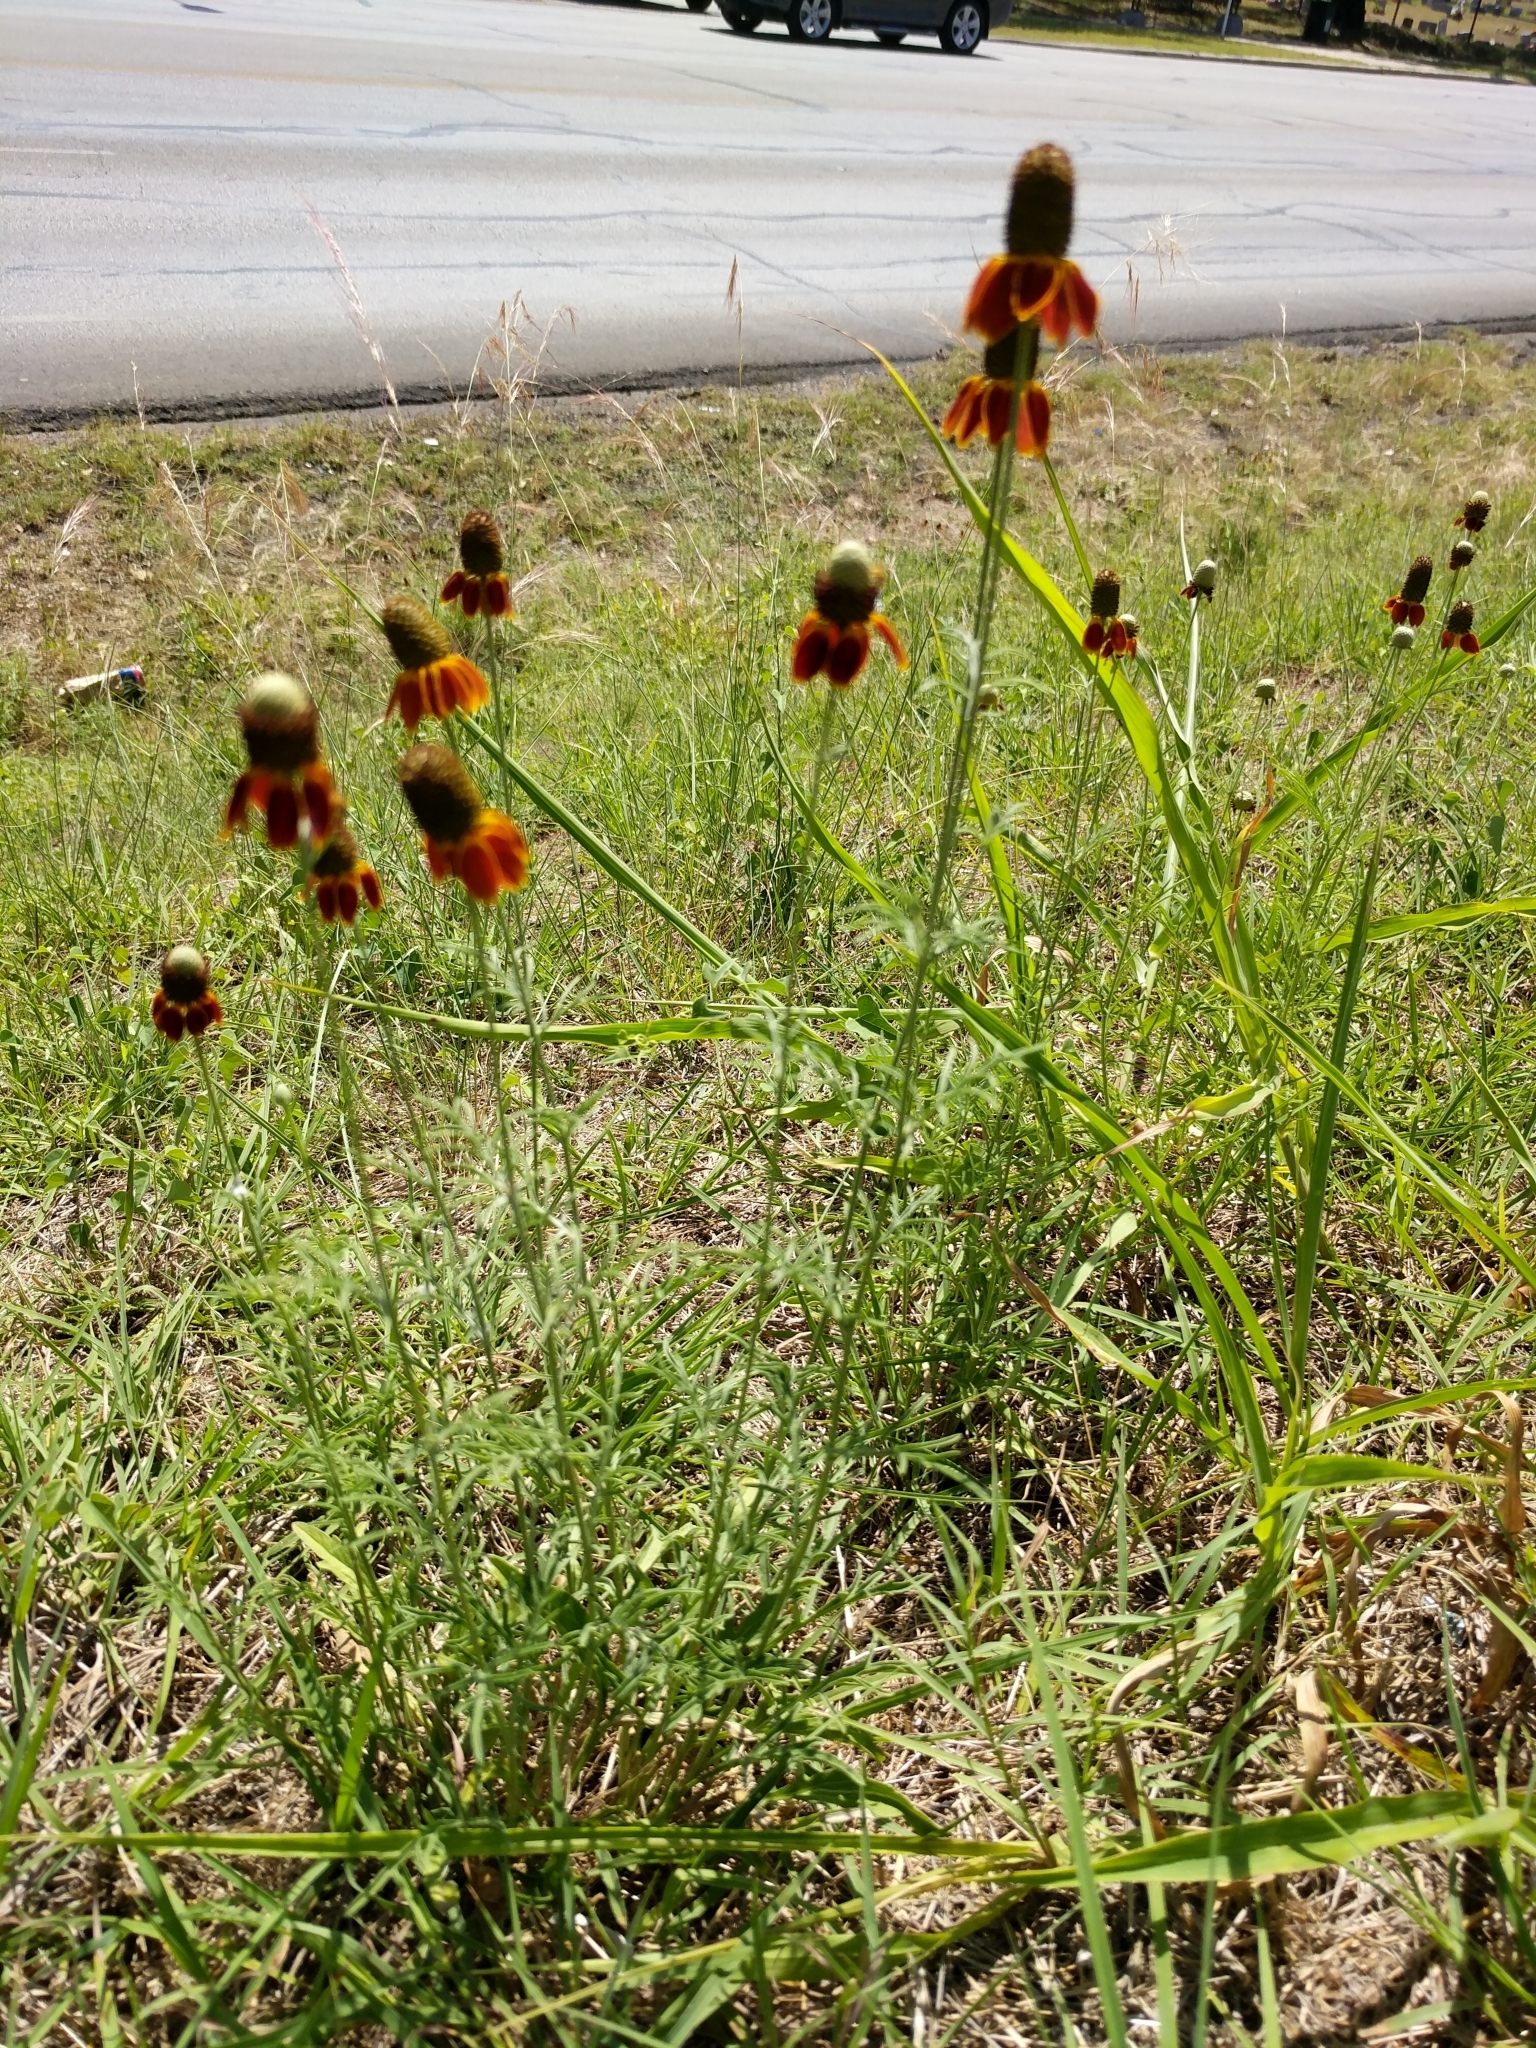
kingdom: Plantae
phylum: Tracheophyta
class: Magnoliopsida
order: Asterales
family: Asteraceae
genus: Ratibida
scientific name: Ratibida columnifera
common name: Prairie coneflower
